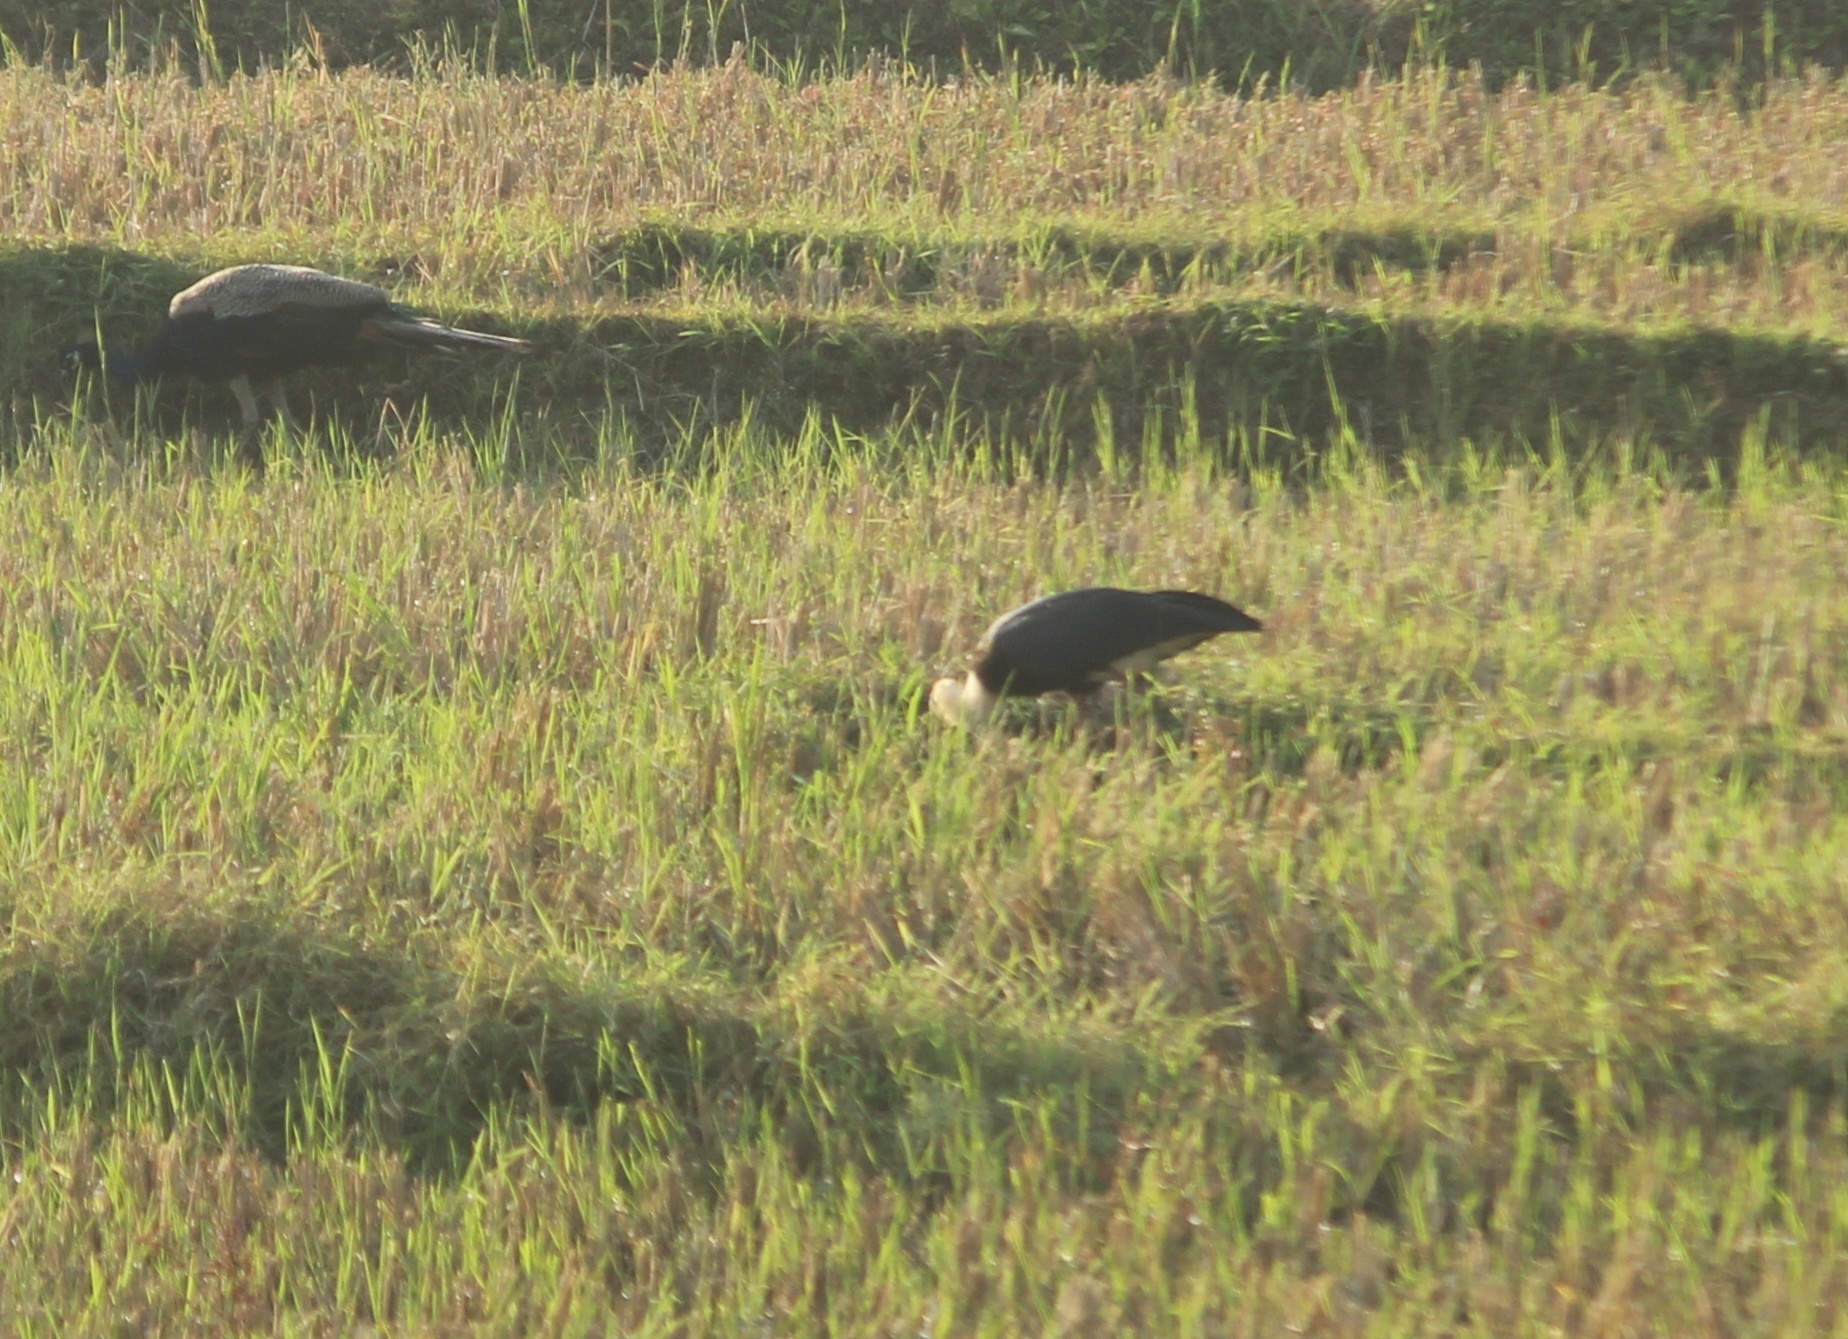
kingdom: Animalia
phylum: Chordata
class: Aves
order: Ciconiiformes
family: Ciconiidae
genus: Ciconia
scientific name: Ciconia episcopus
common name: Woolly-necked stork
